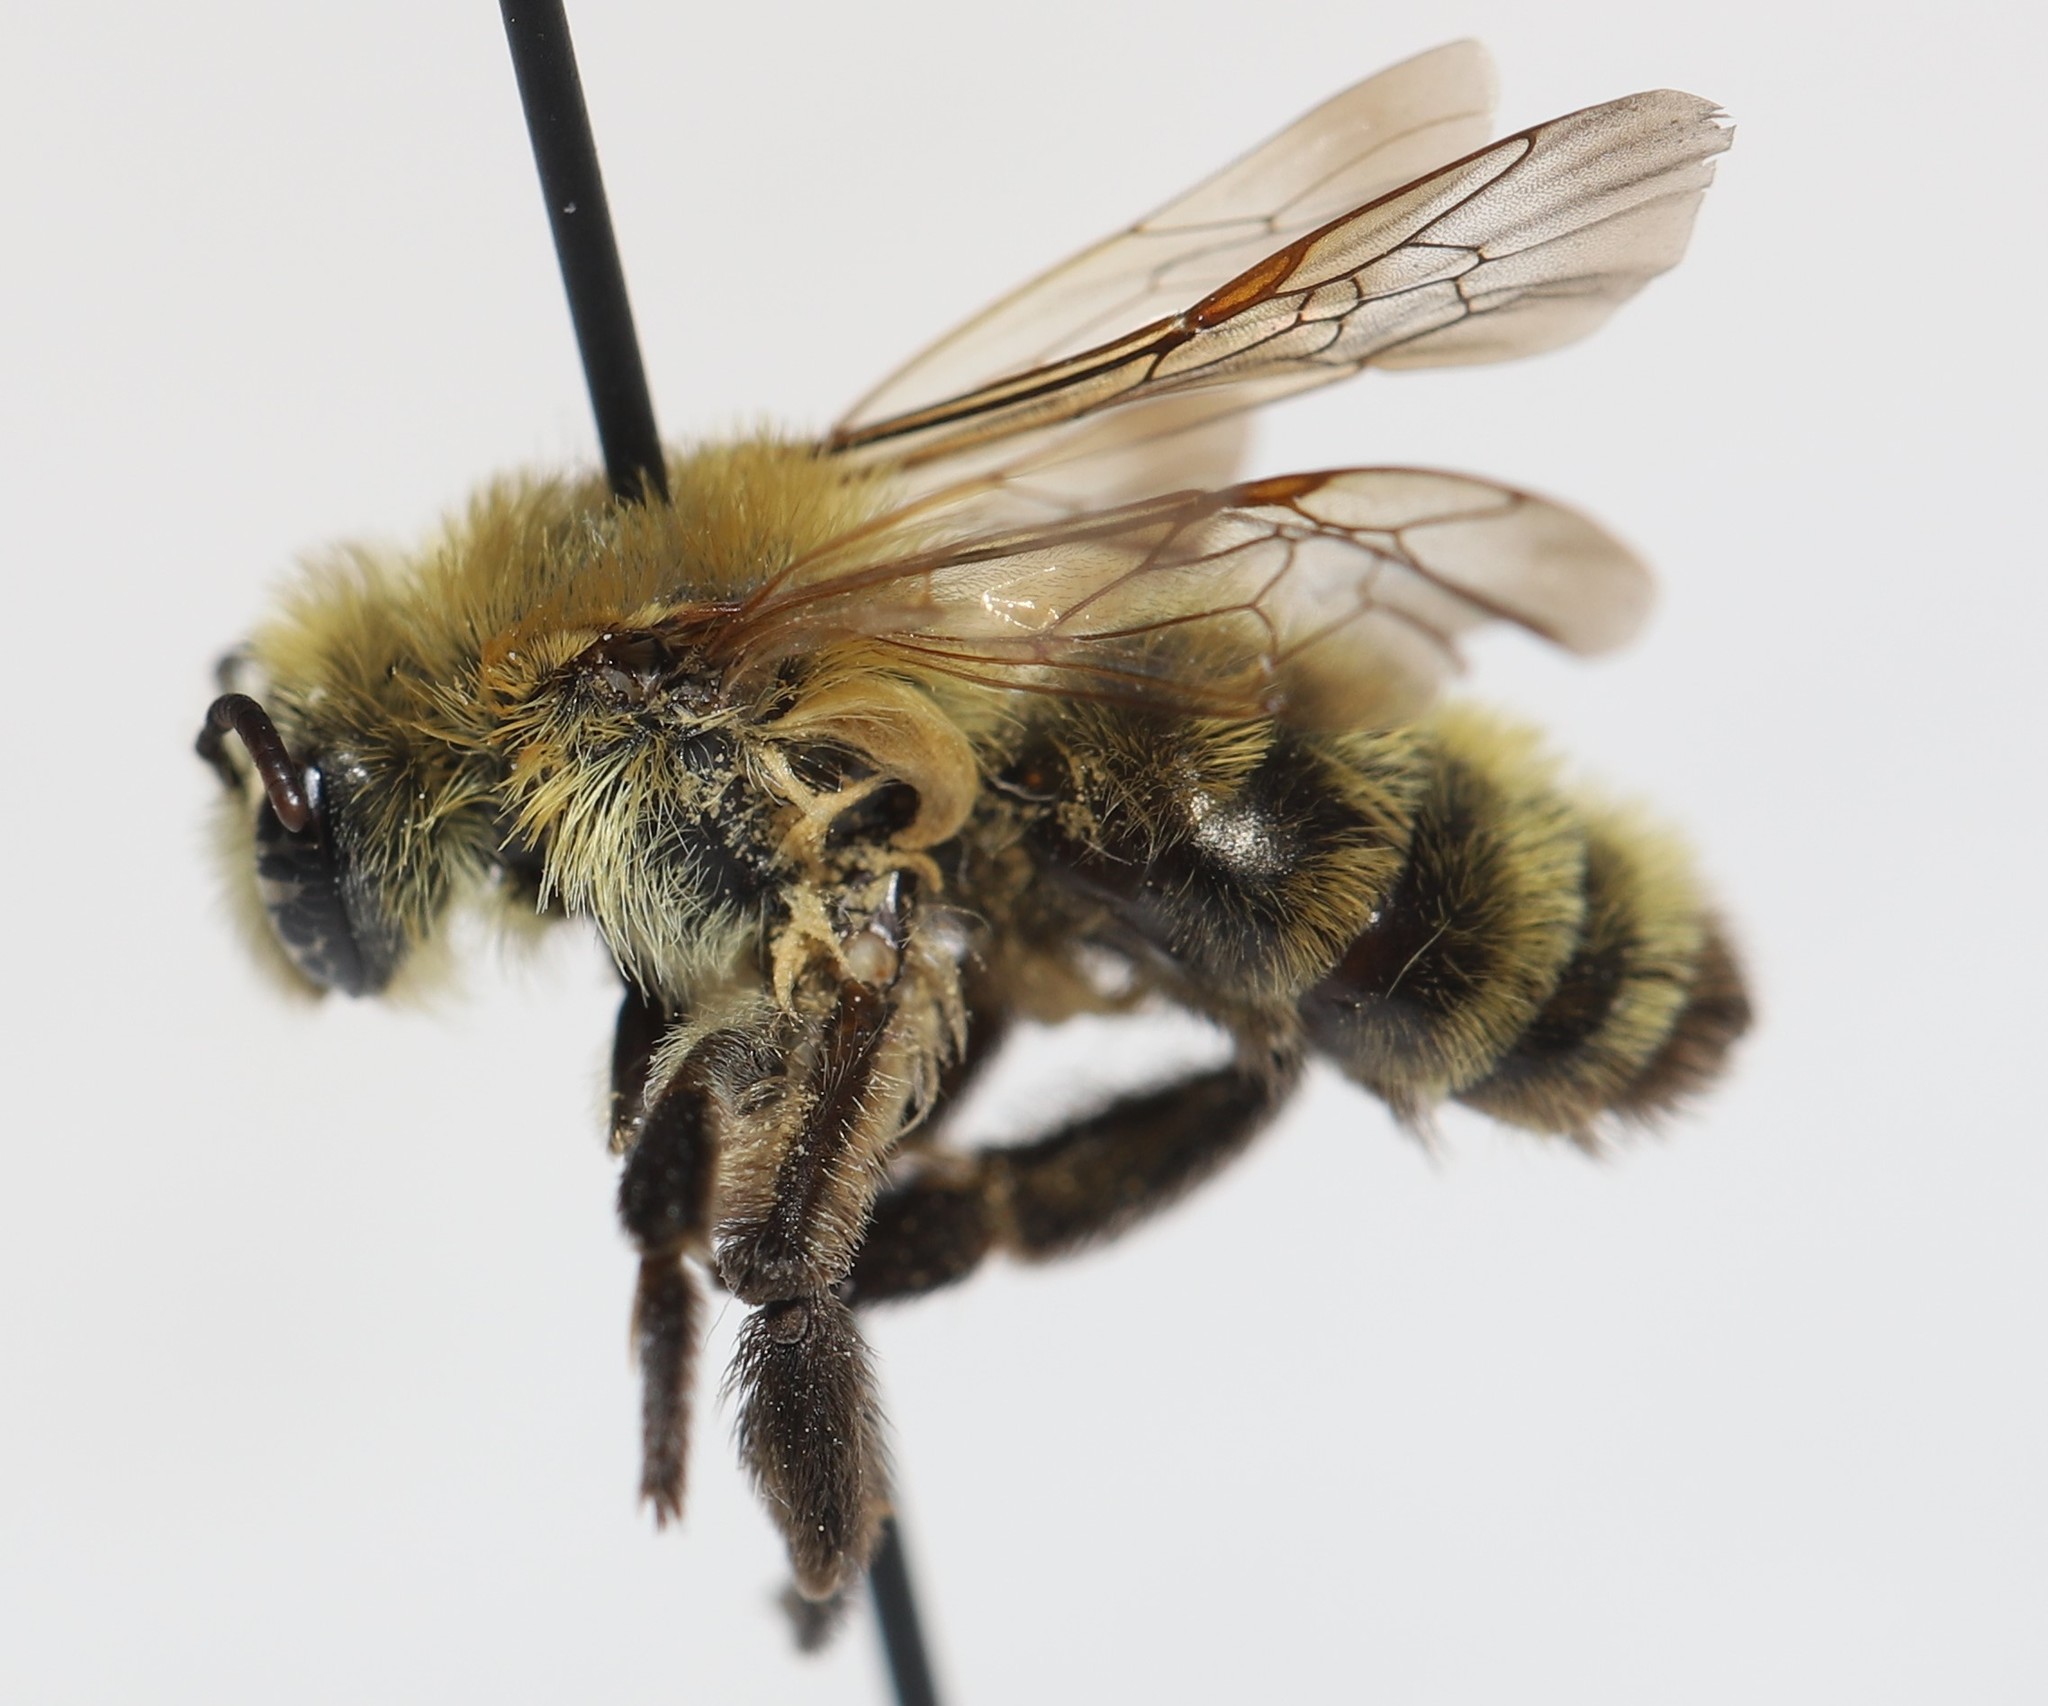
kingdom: Animalia
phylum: Arthropoda
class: Insecta
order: Hymenoptera
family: Andrenidae
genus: Andrena
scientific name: Andrena hirticincta
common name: Hairy-banded mining bee
